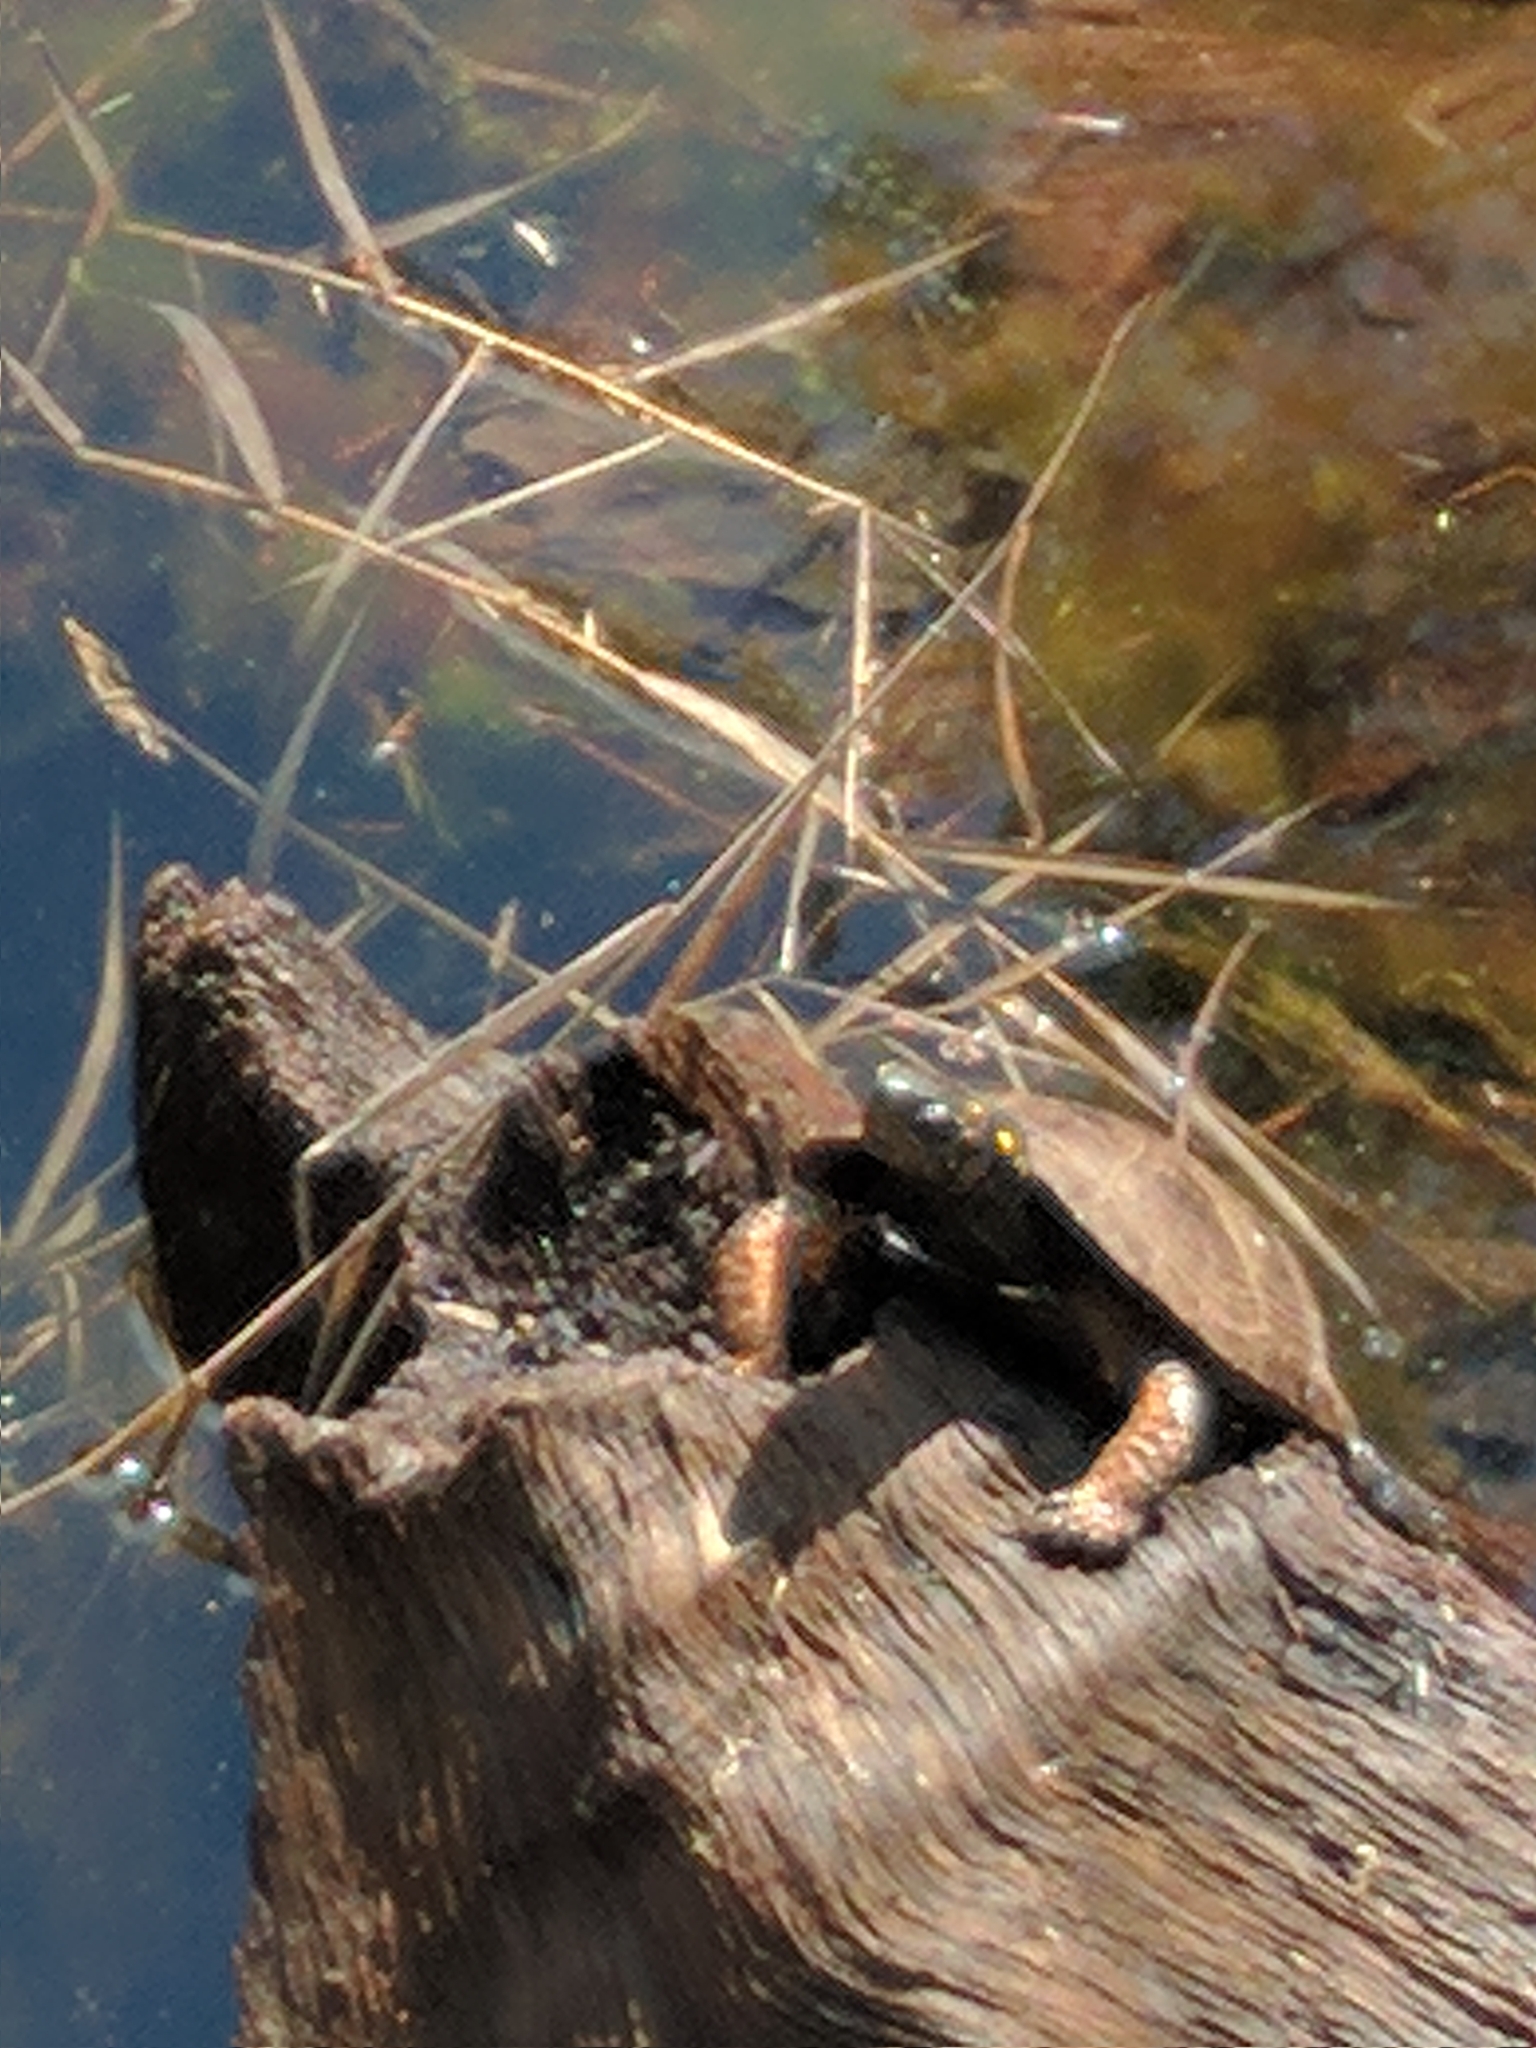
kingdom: Animalia
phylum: Chordata
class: Testudines
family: Emydidae
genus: Clemmys
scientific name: Clemmys guttata
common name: Spotted turtle
